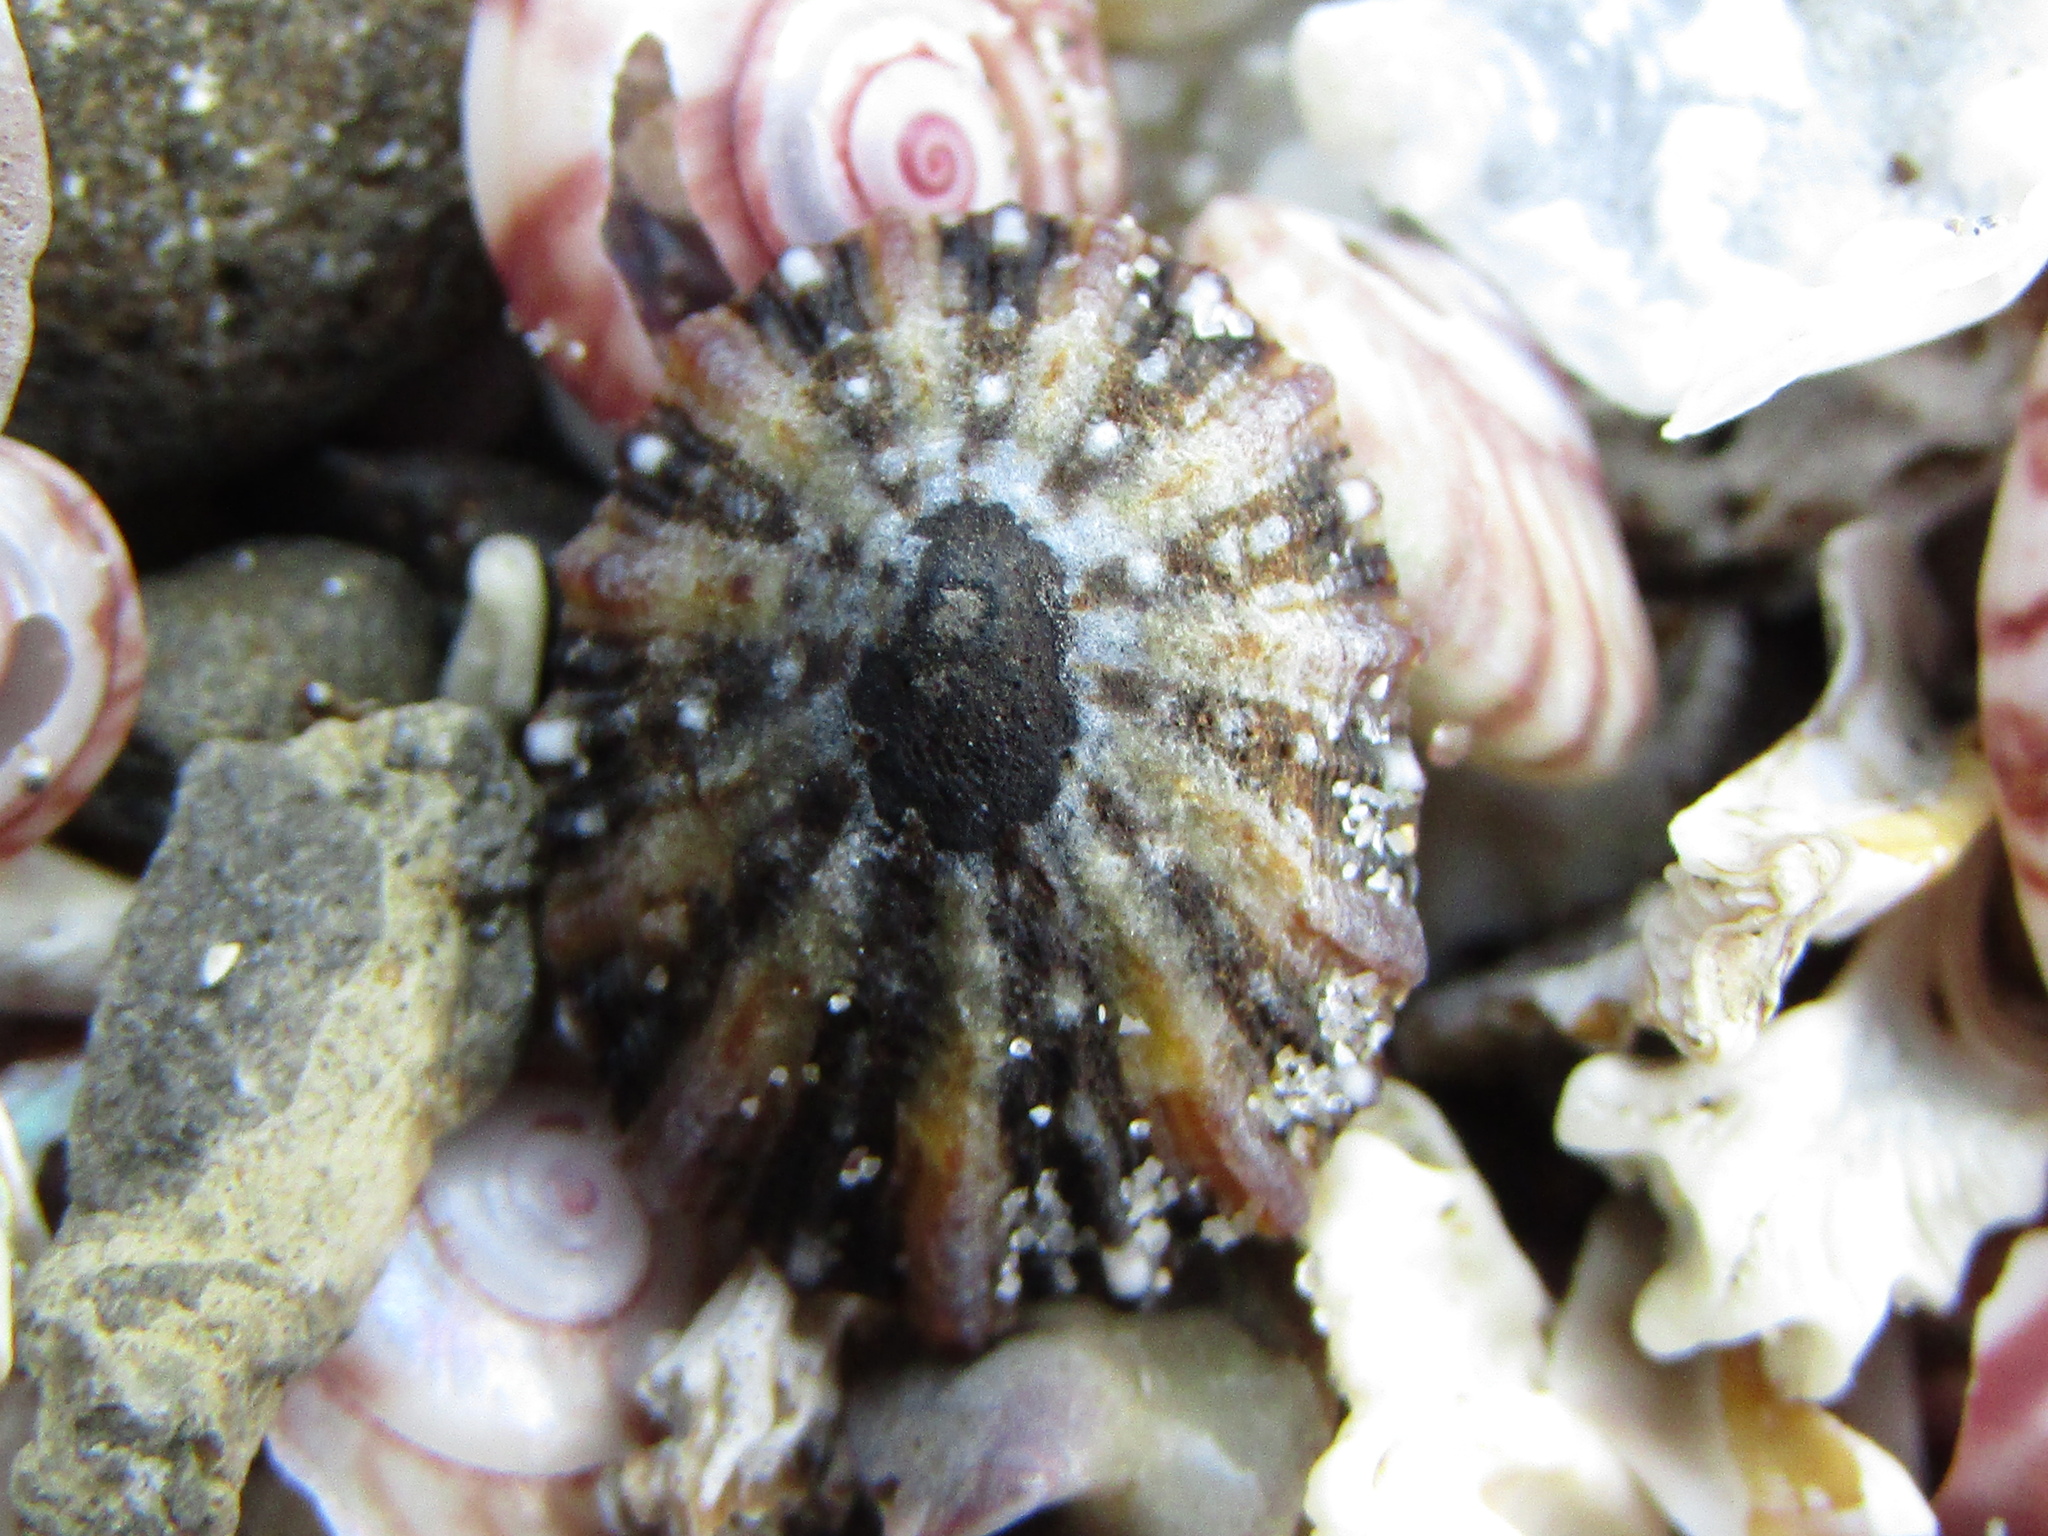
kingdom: Animalia
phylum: Mollusca
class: Gastropoda
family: Nacellidae
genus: Cellana
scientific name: Cellana ornata
